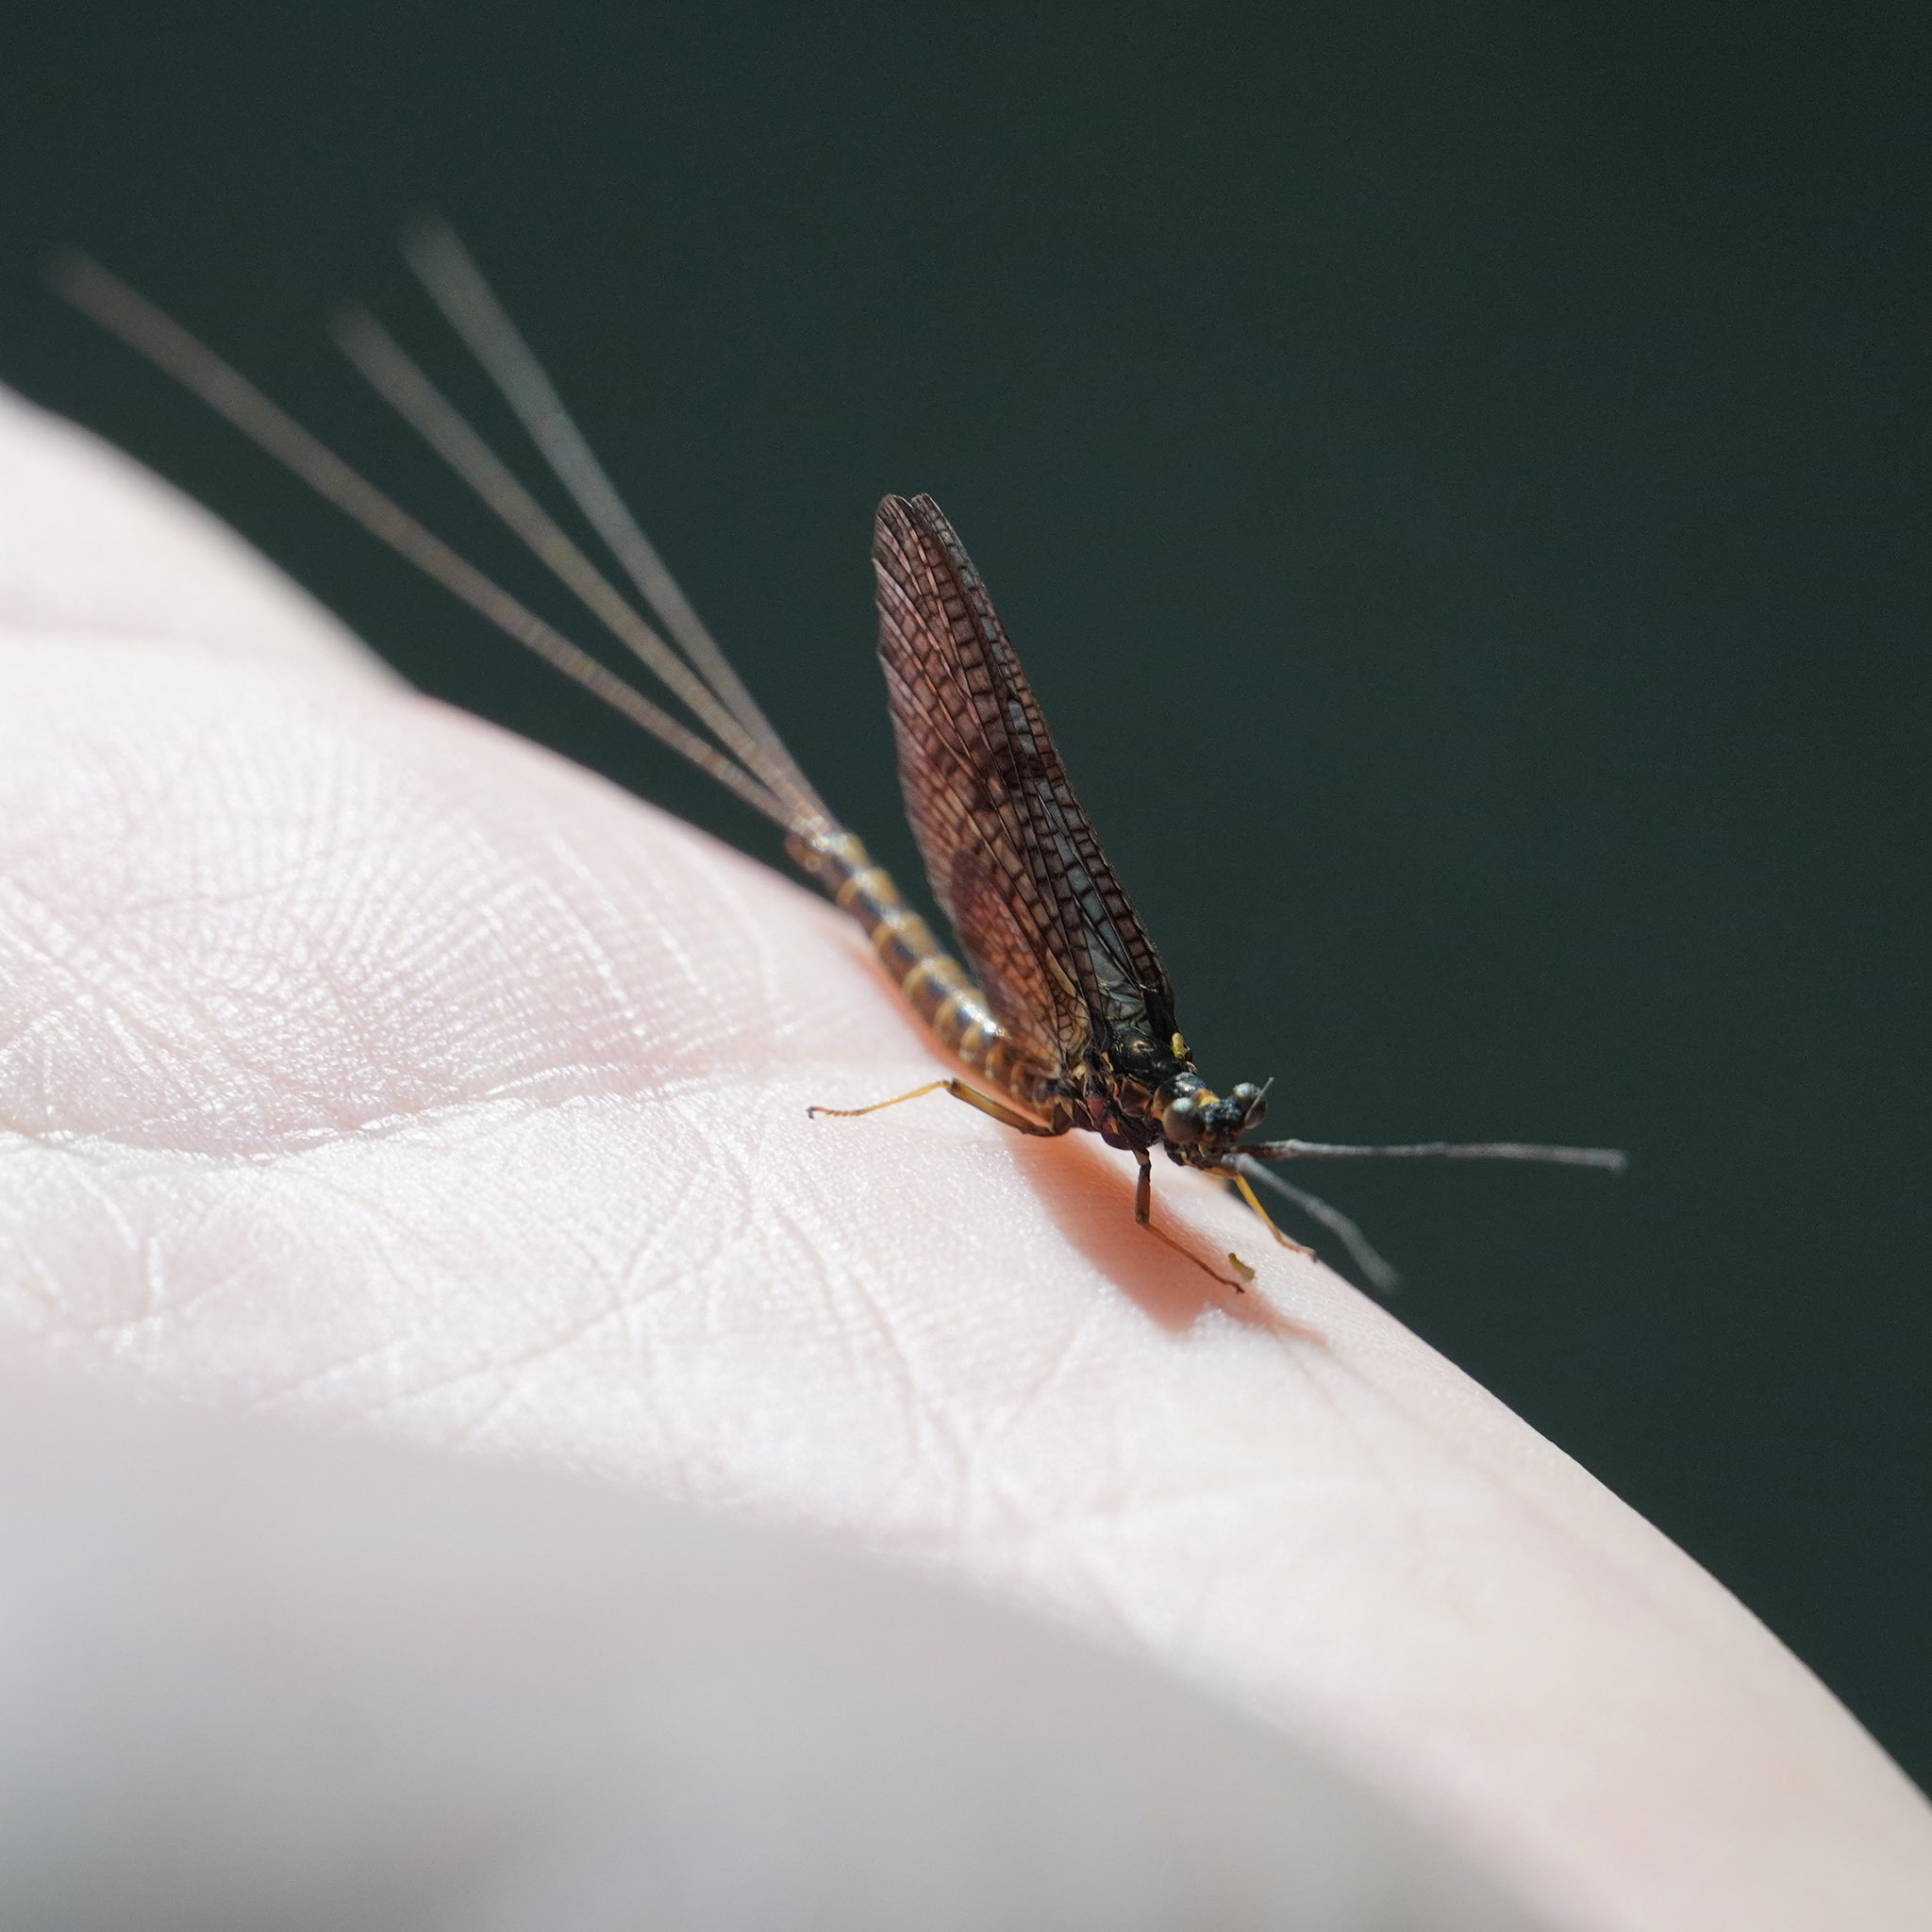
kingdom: Animalia
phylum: Arthropoda
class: Insecta
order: Ephemeroptera
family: Ephemeridae
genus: Ephemera
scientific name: Ephemera vulgata
